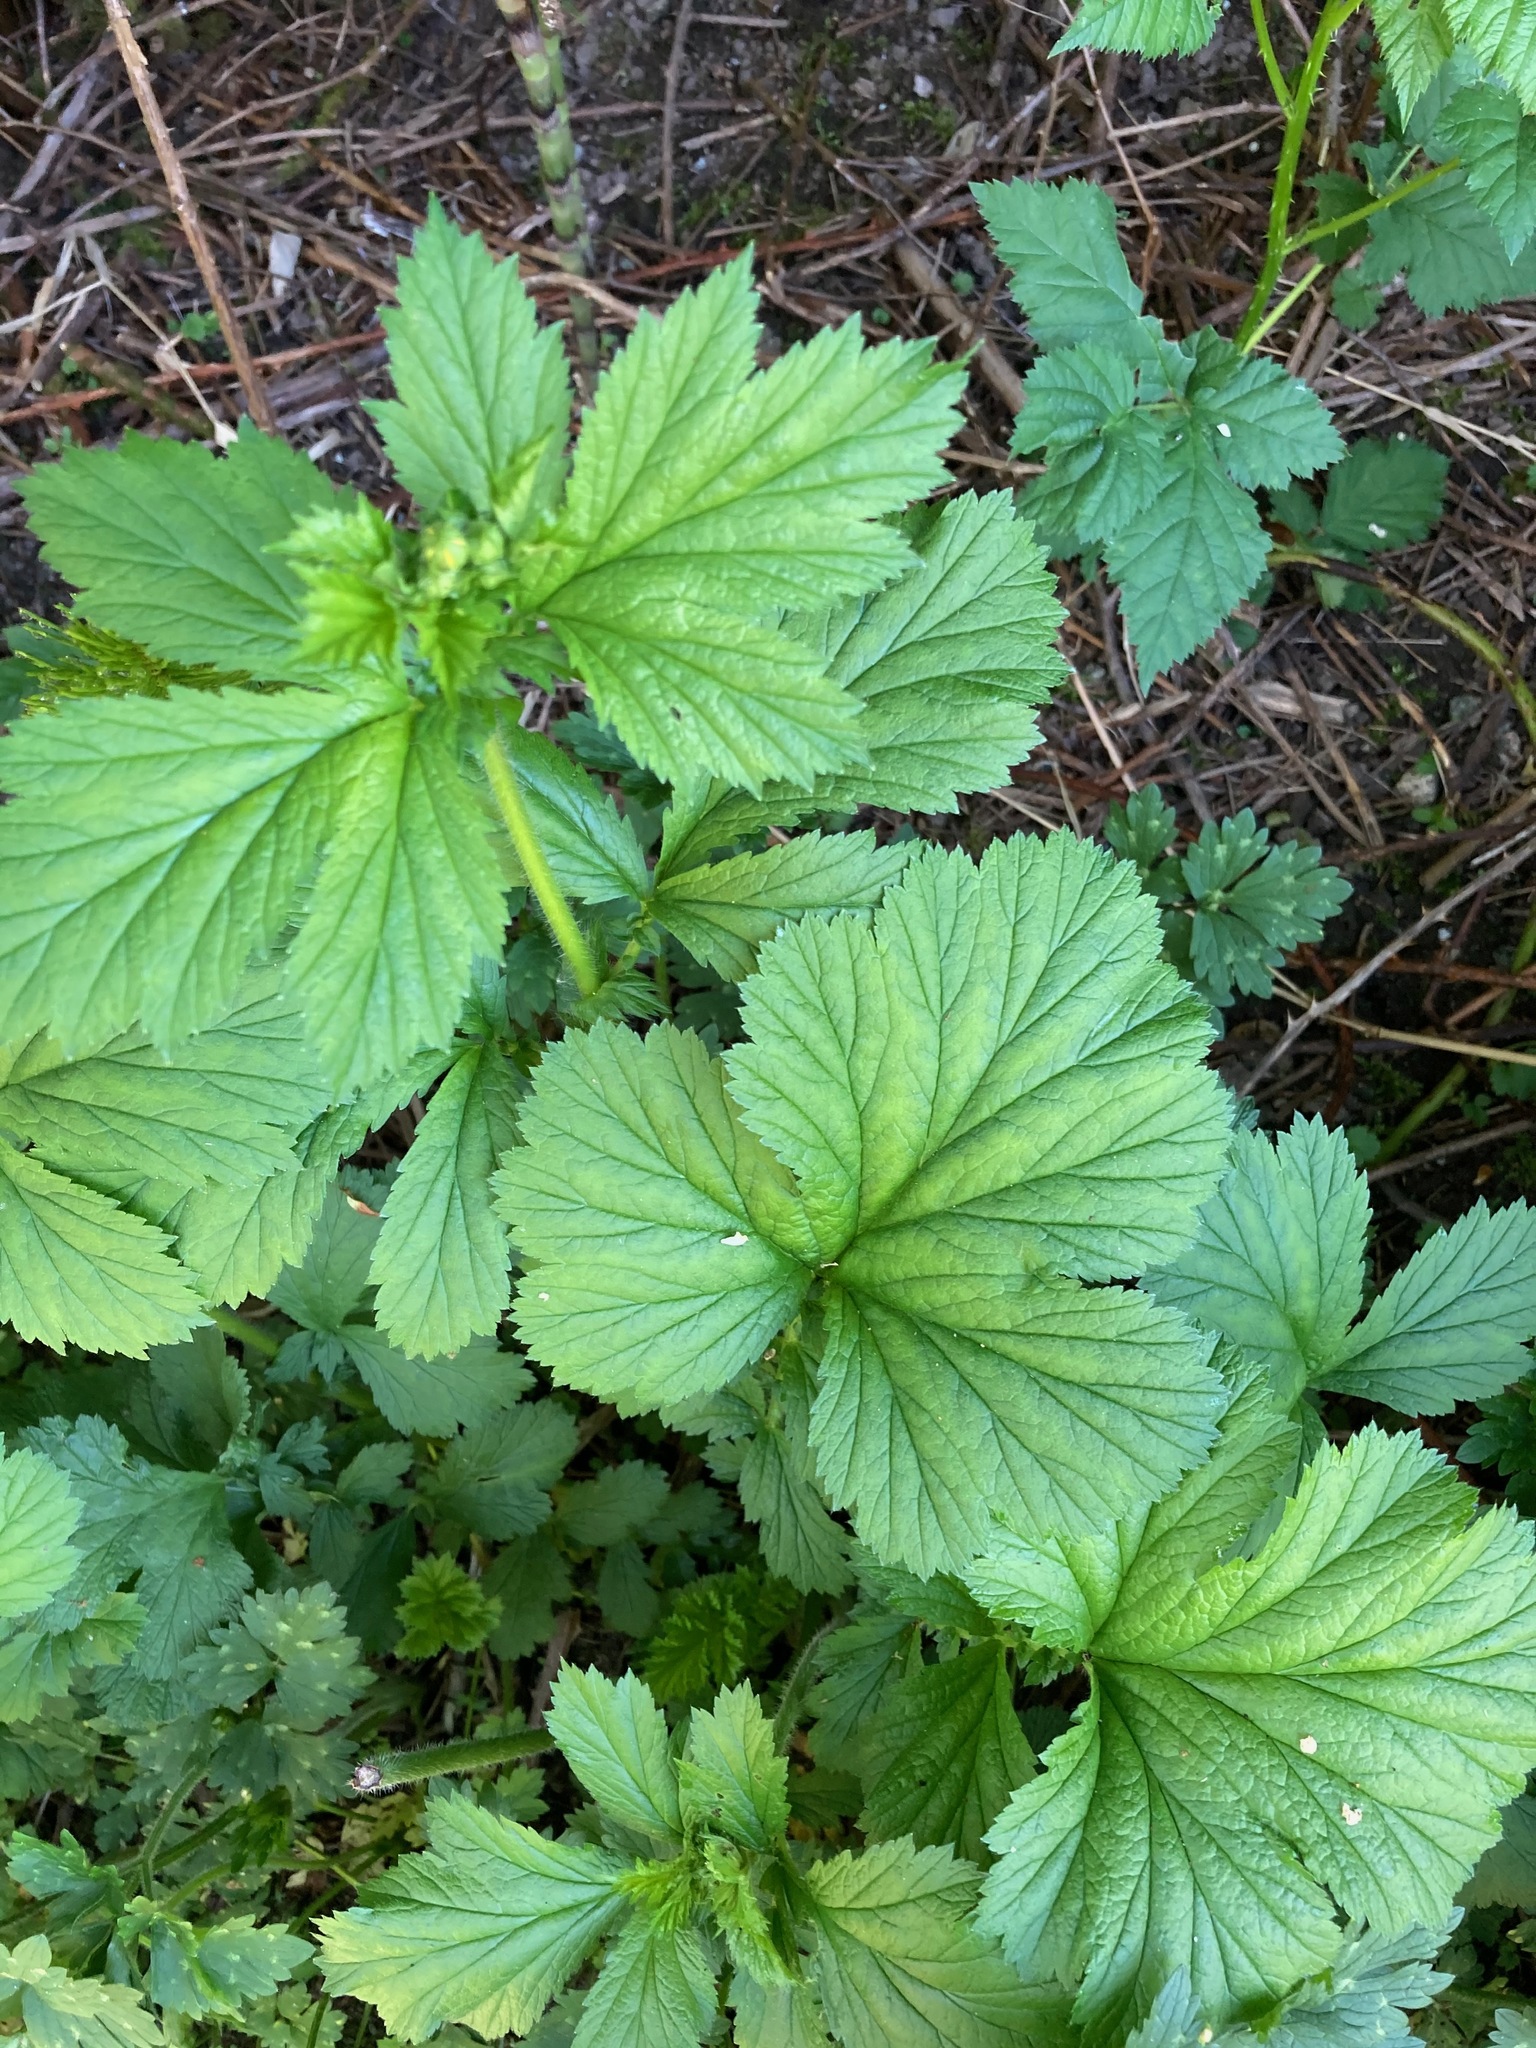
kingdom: Plantae
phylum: Tracheophyta
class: Magnoliopsida
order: Rosales
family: Rosaceae
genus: Geum
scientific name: Geum macrophyllum
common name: Large-leaved avens
